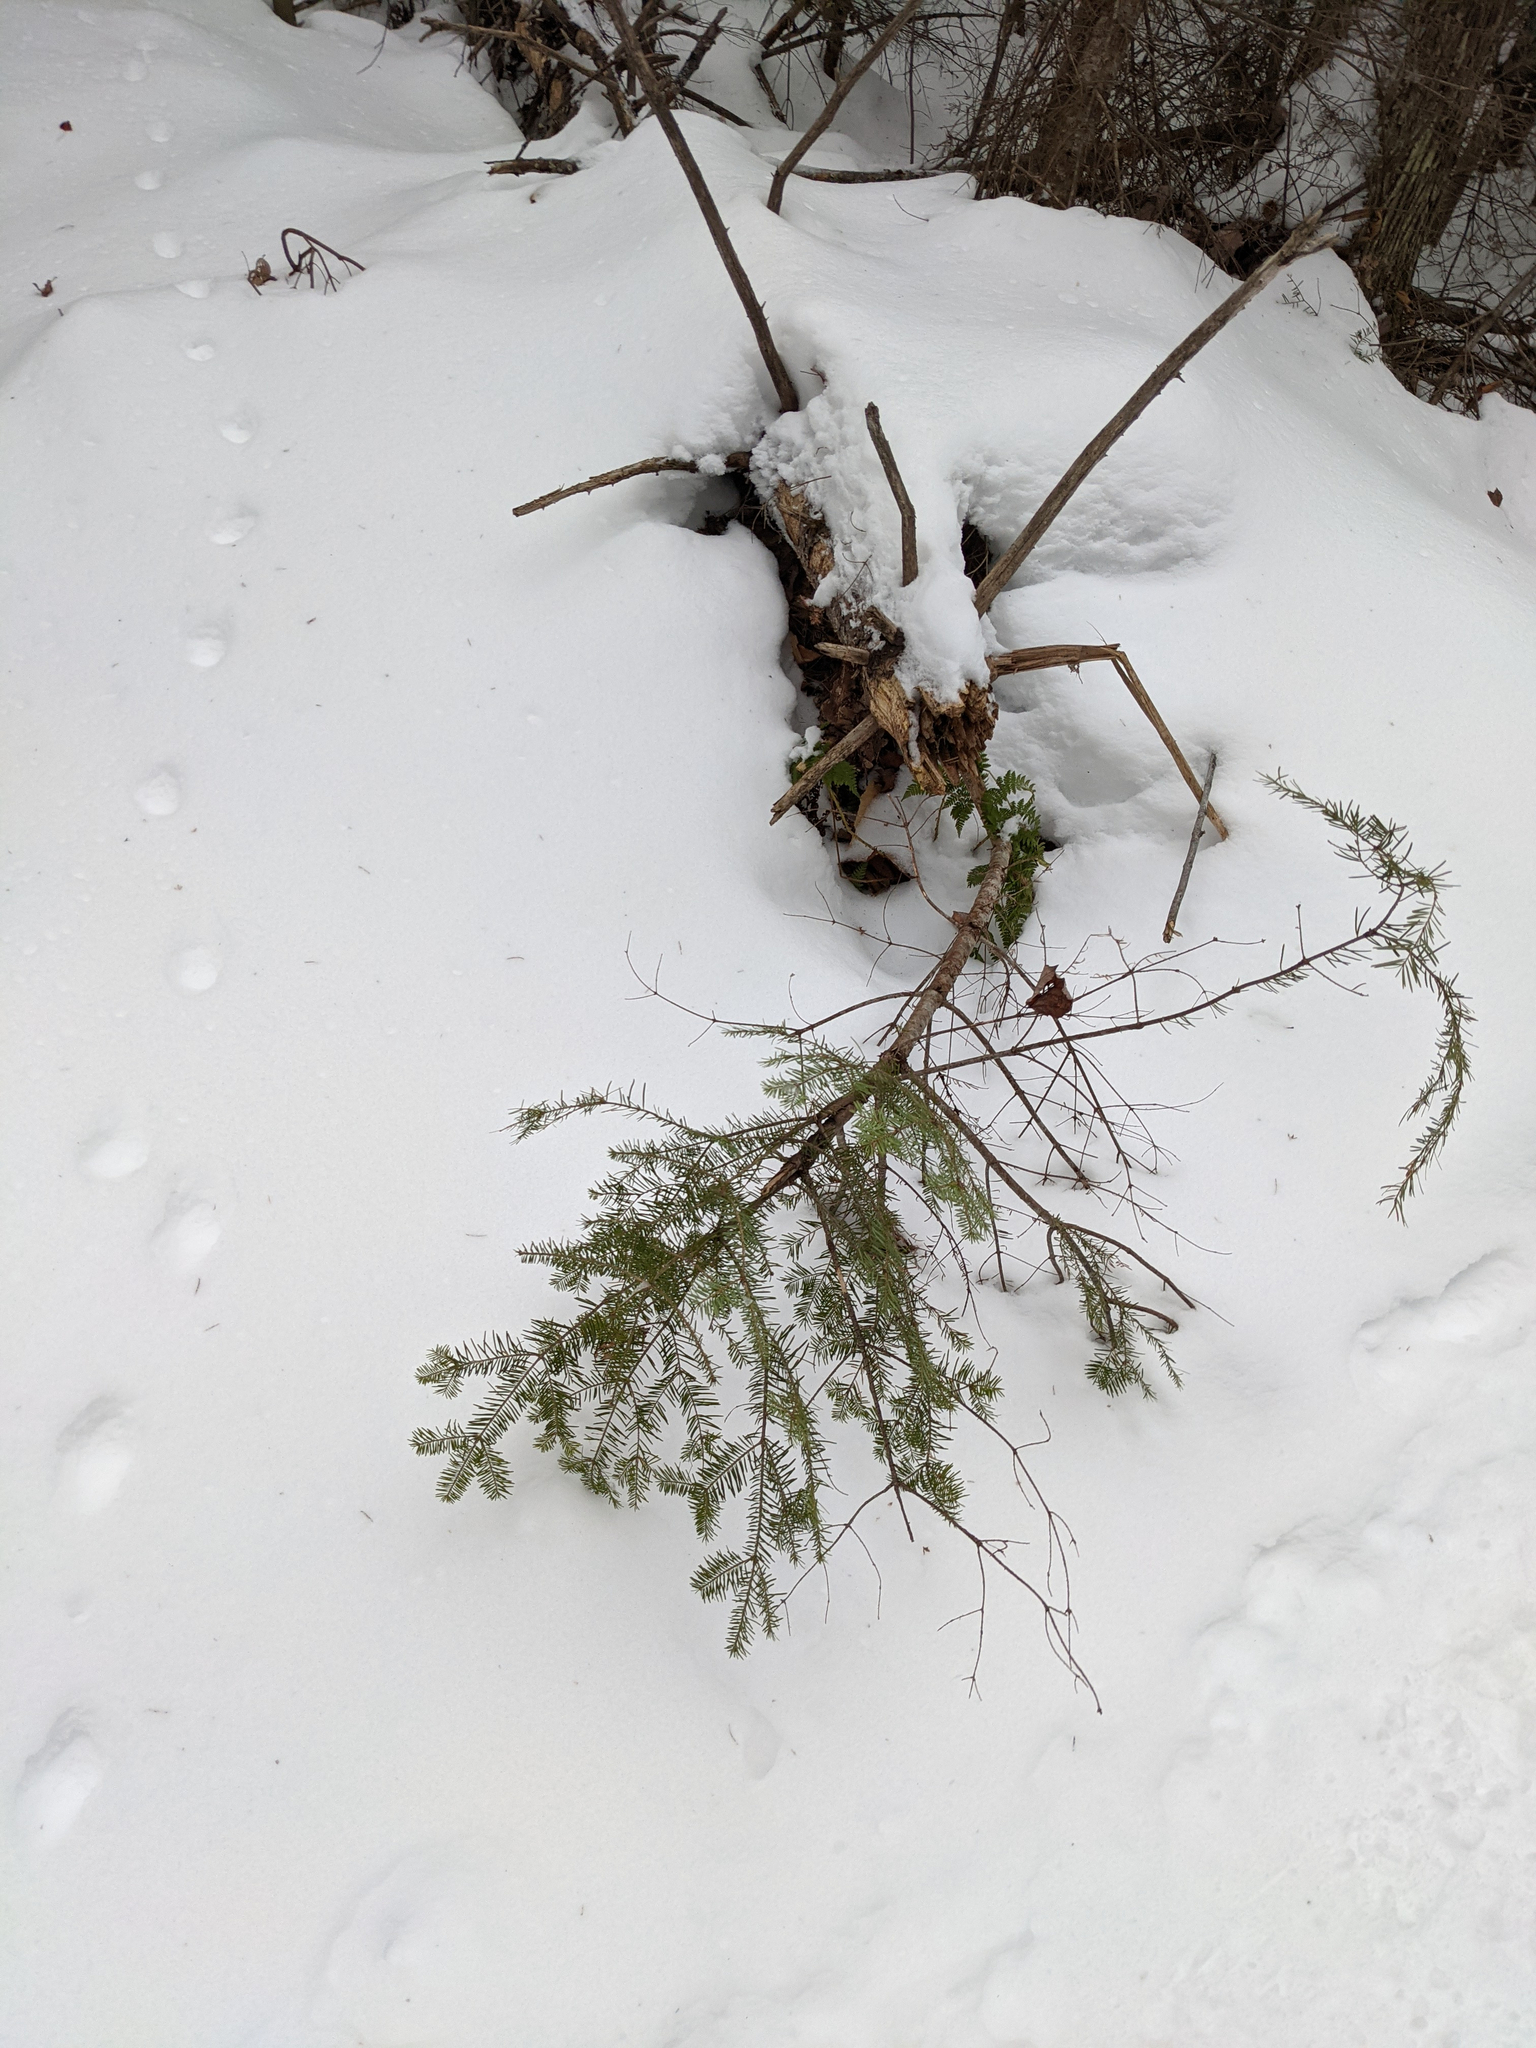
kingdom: Plantae
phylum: Tracheophyta
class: Pinopsida
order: Pinales
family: Pinaceae
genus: Abies
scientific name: Abies balsamea
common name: Balsam fir
